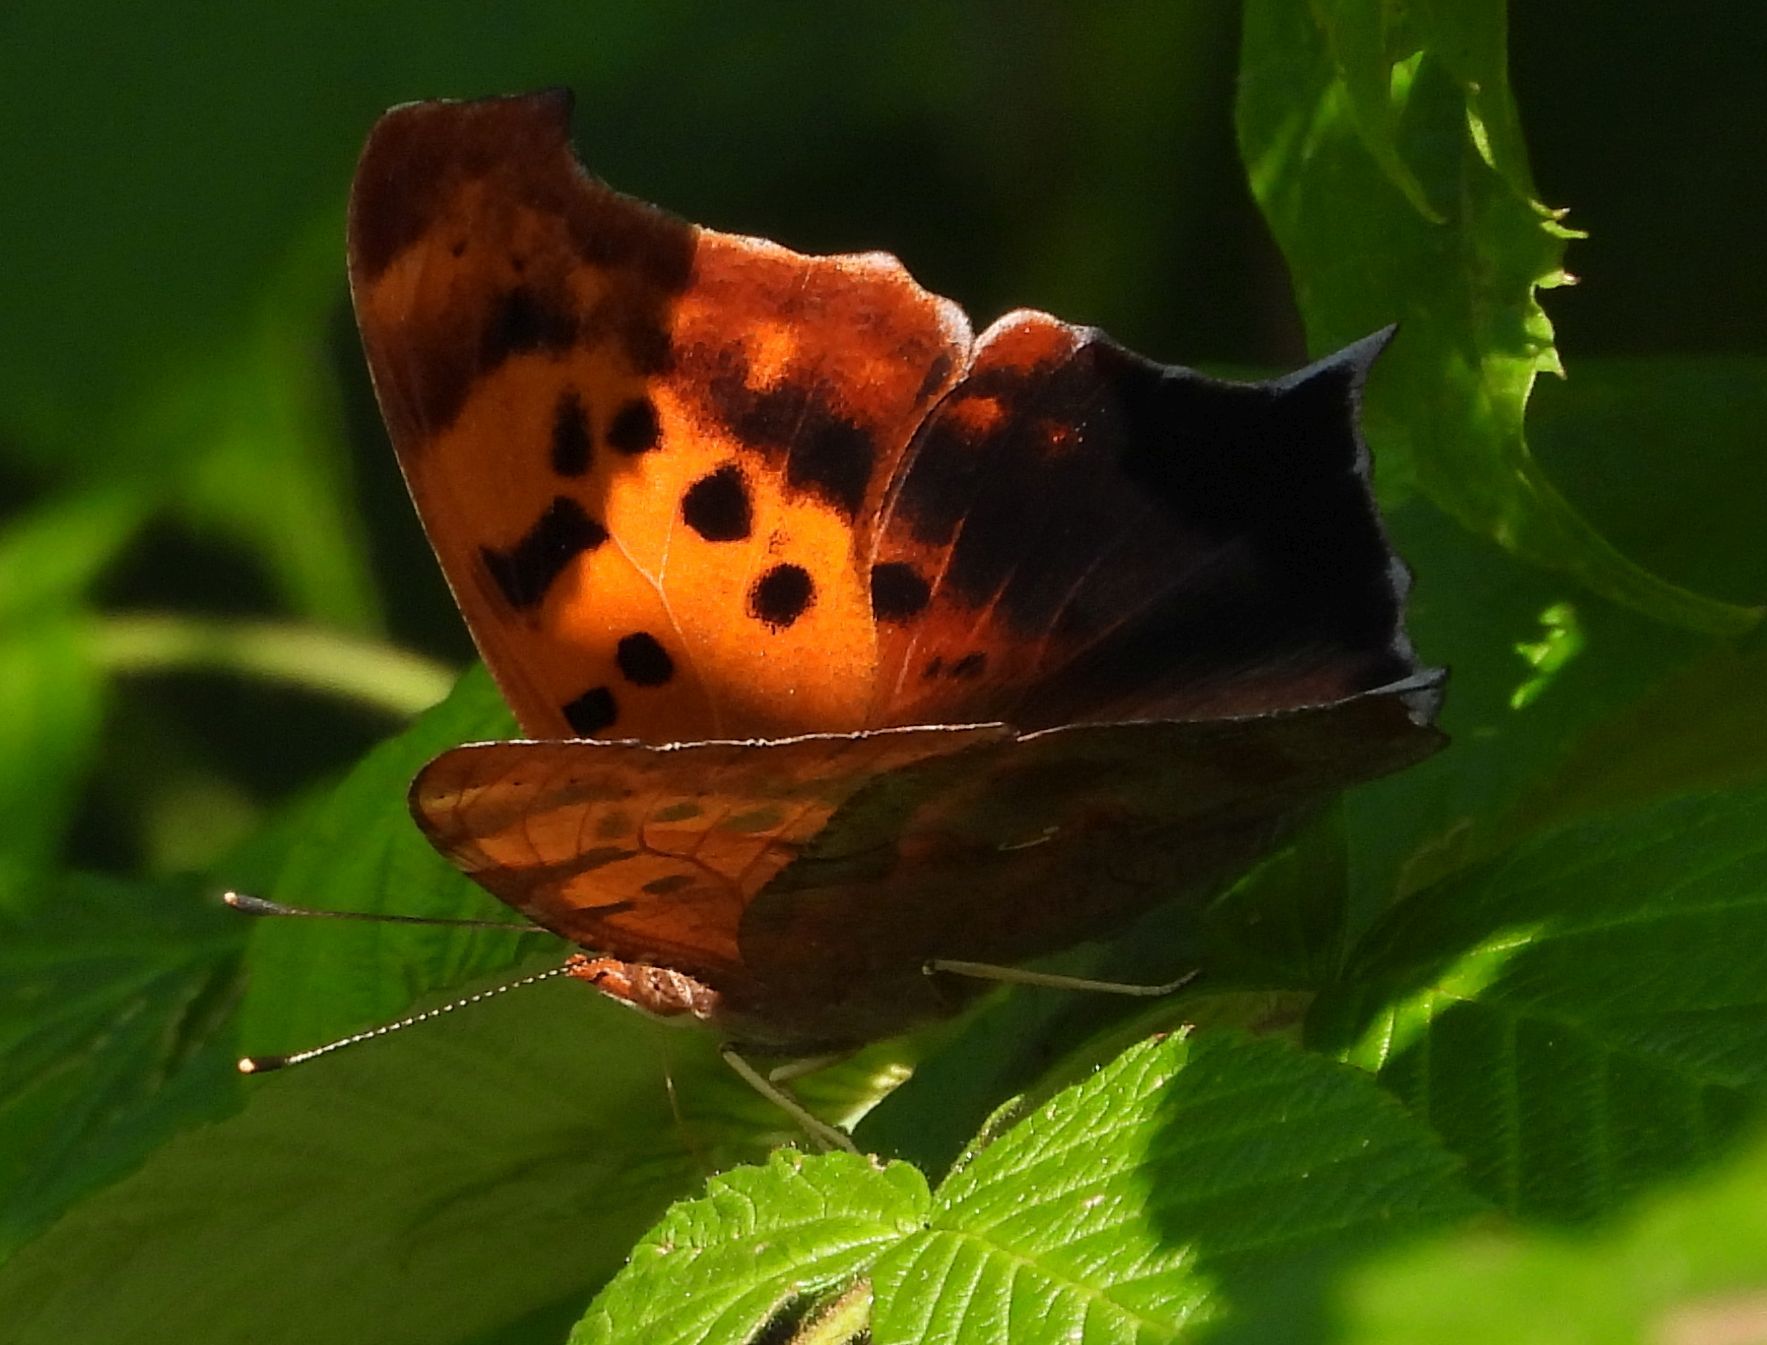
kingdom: Animalia
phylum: Arthropoda
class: Insecta
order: Lepidoptera
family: Nymphalidae
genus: Polygonia
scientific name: Polygonia interrogationis
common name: Question mark
